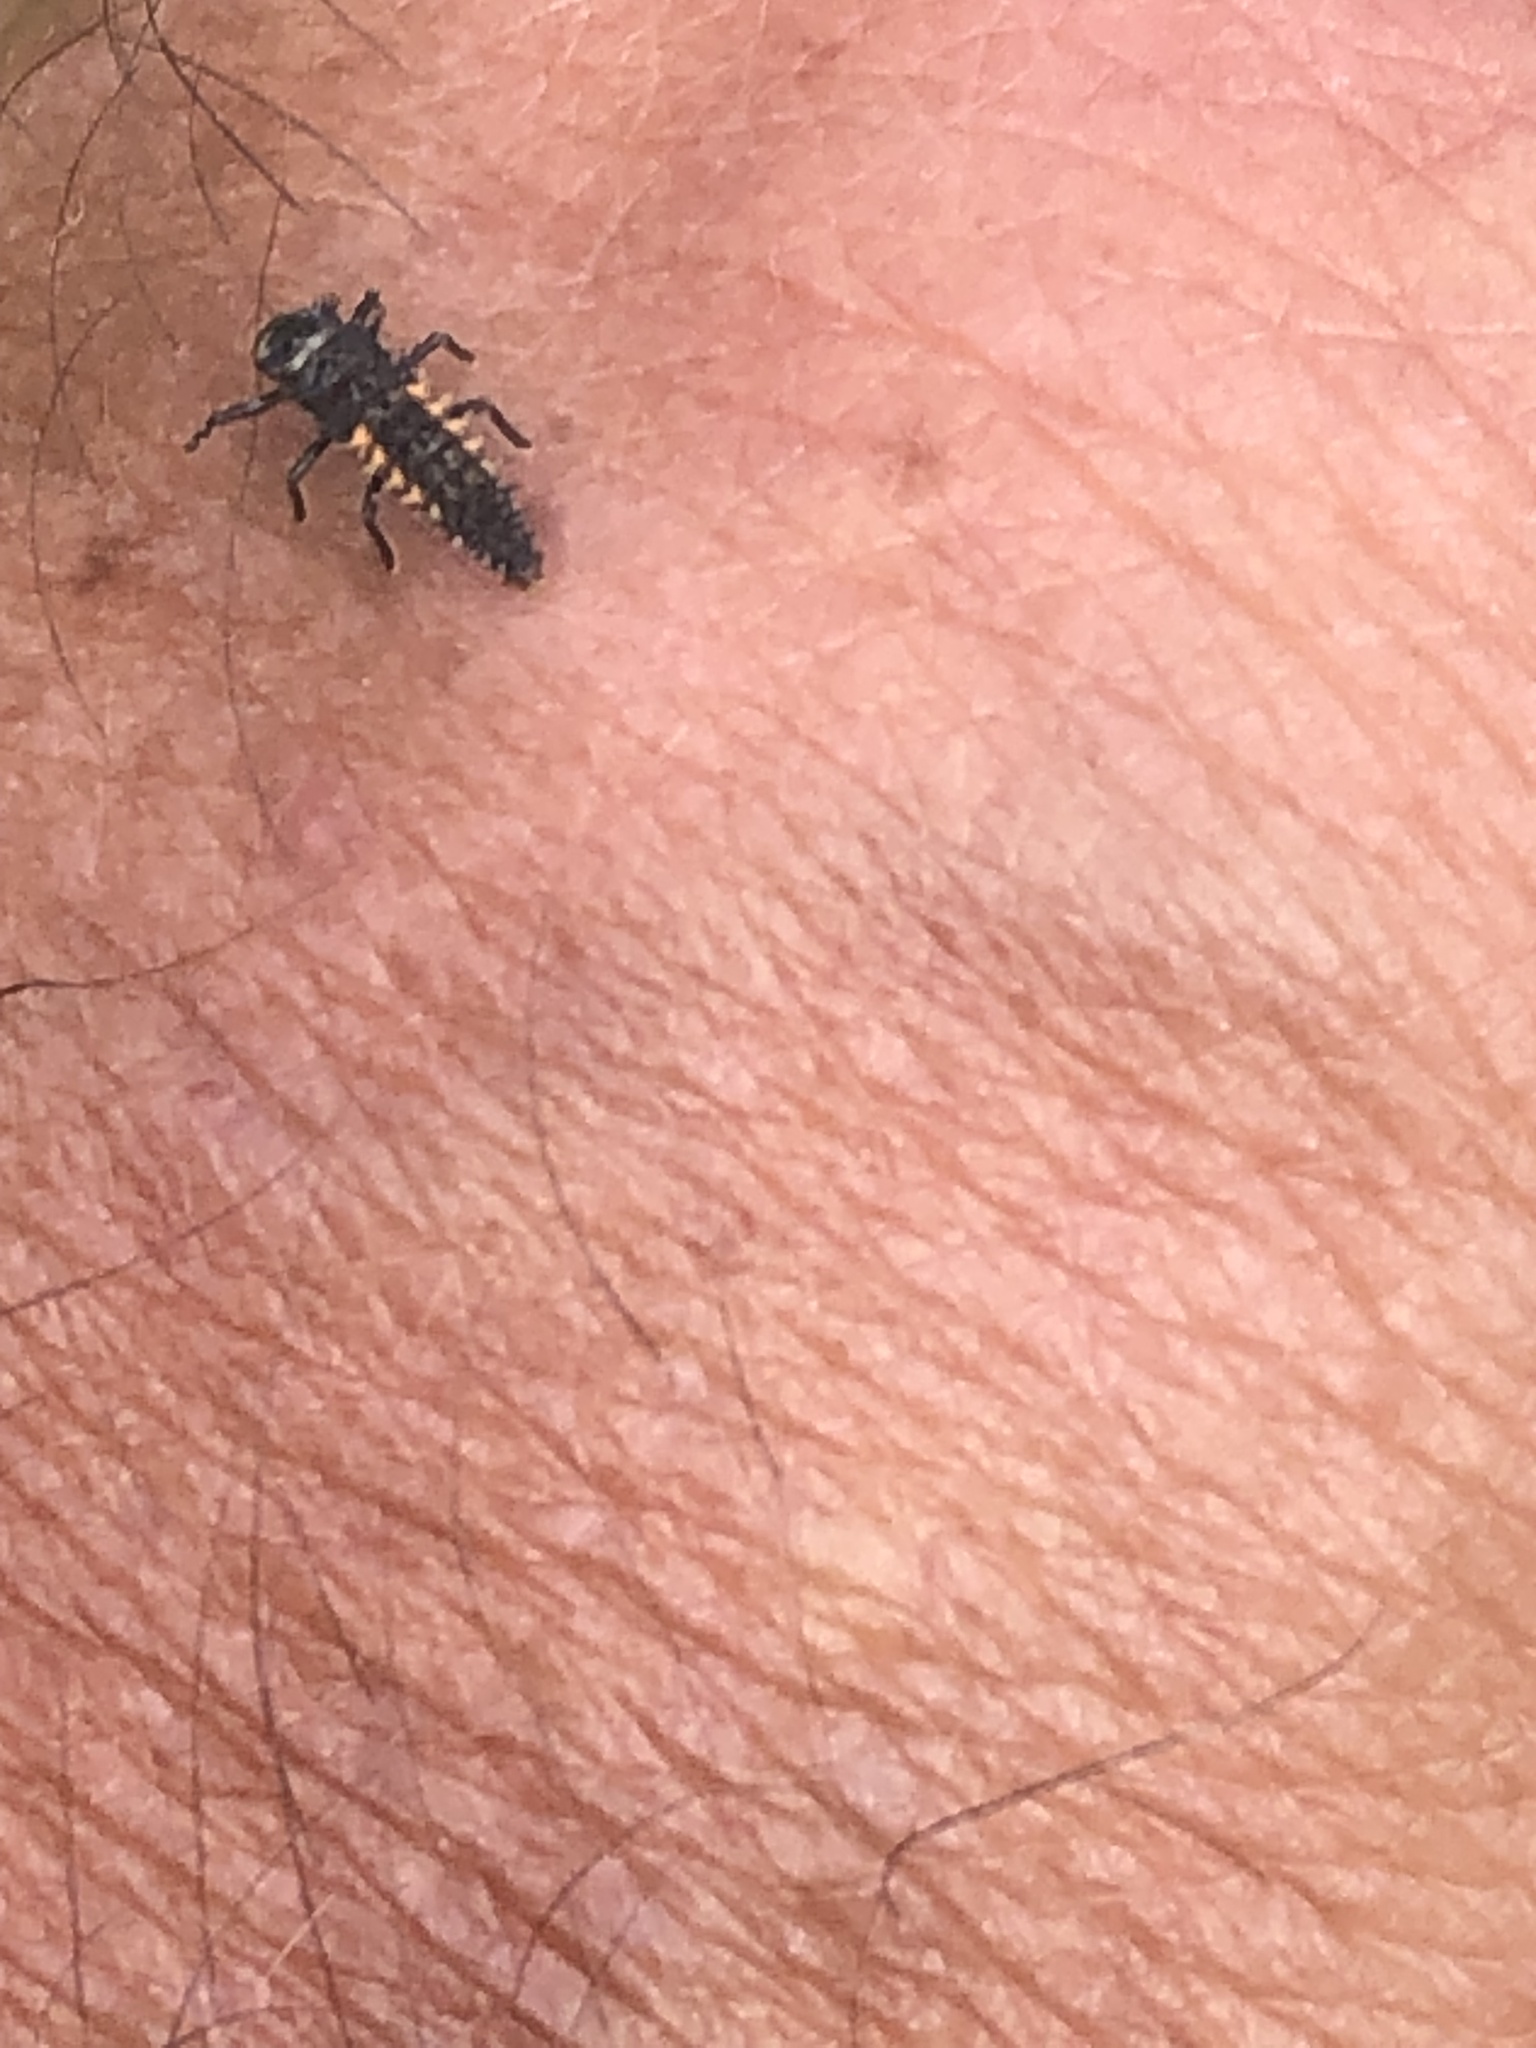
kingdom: Animalia
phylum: Arthropoda
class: Insecta
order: Coleoptera
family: Coccinellidae
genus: Harmonia
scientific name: Harmonia axyridis
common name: Harlequin ladybird
